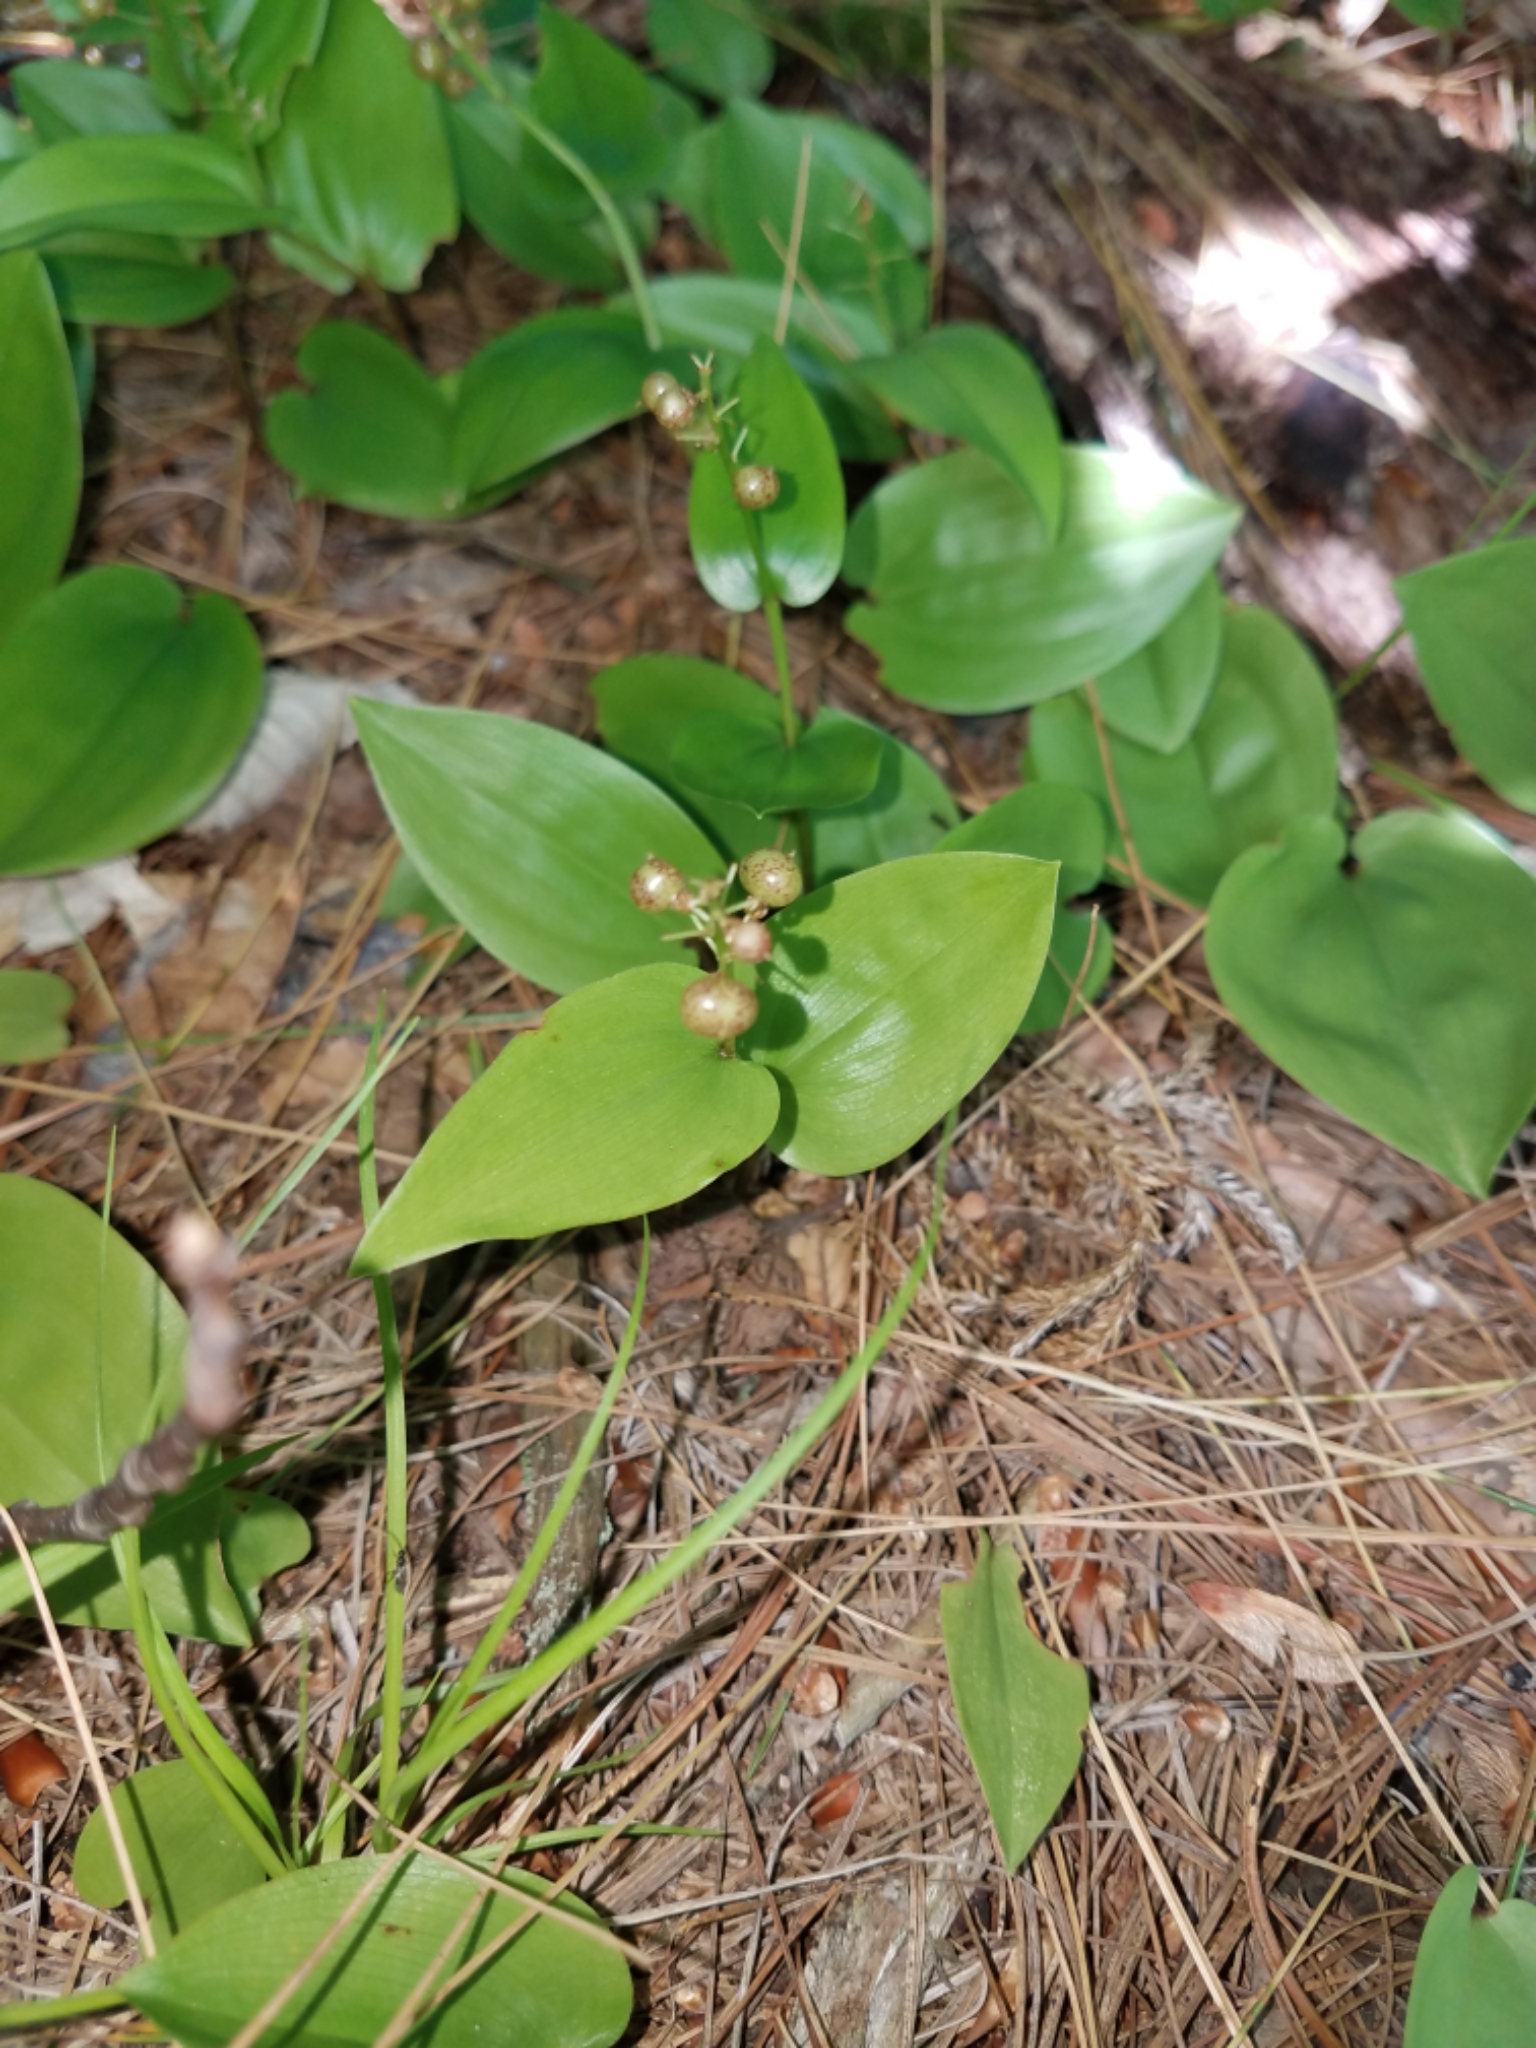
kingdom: Plantae
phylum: Tracheophyta
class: Liliopsida
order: Asparagales
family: Asparagaceae
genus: Maianthemum
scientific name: Maianthemum canadense
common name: False lily-of-the-valley
